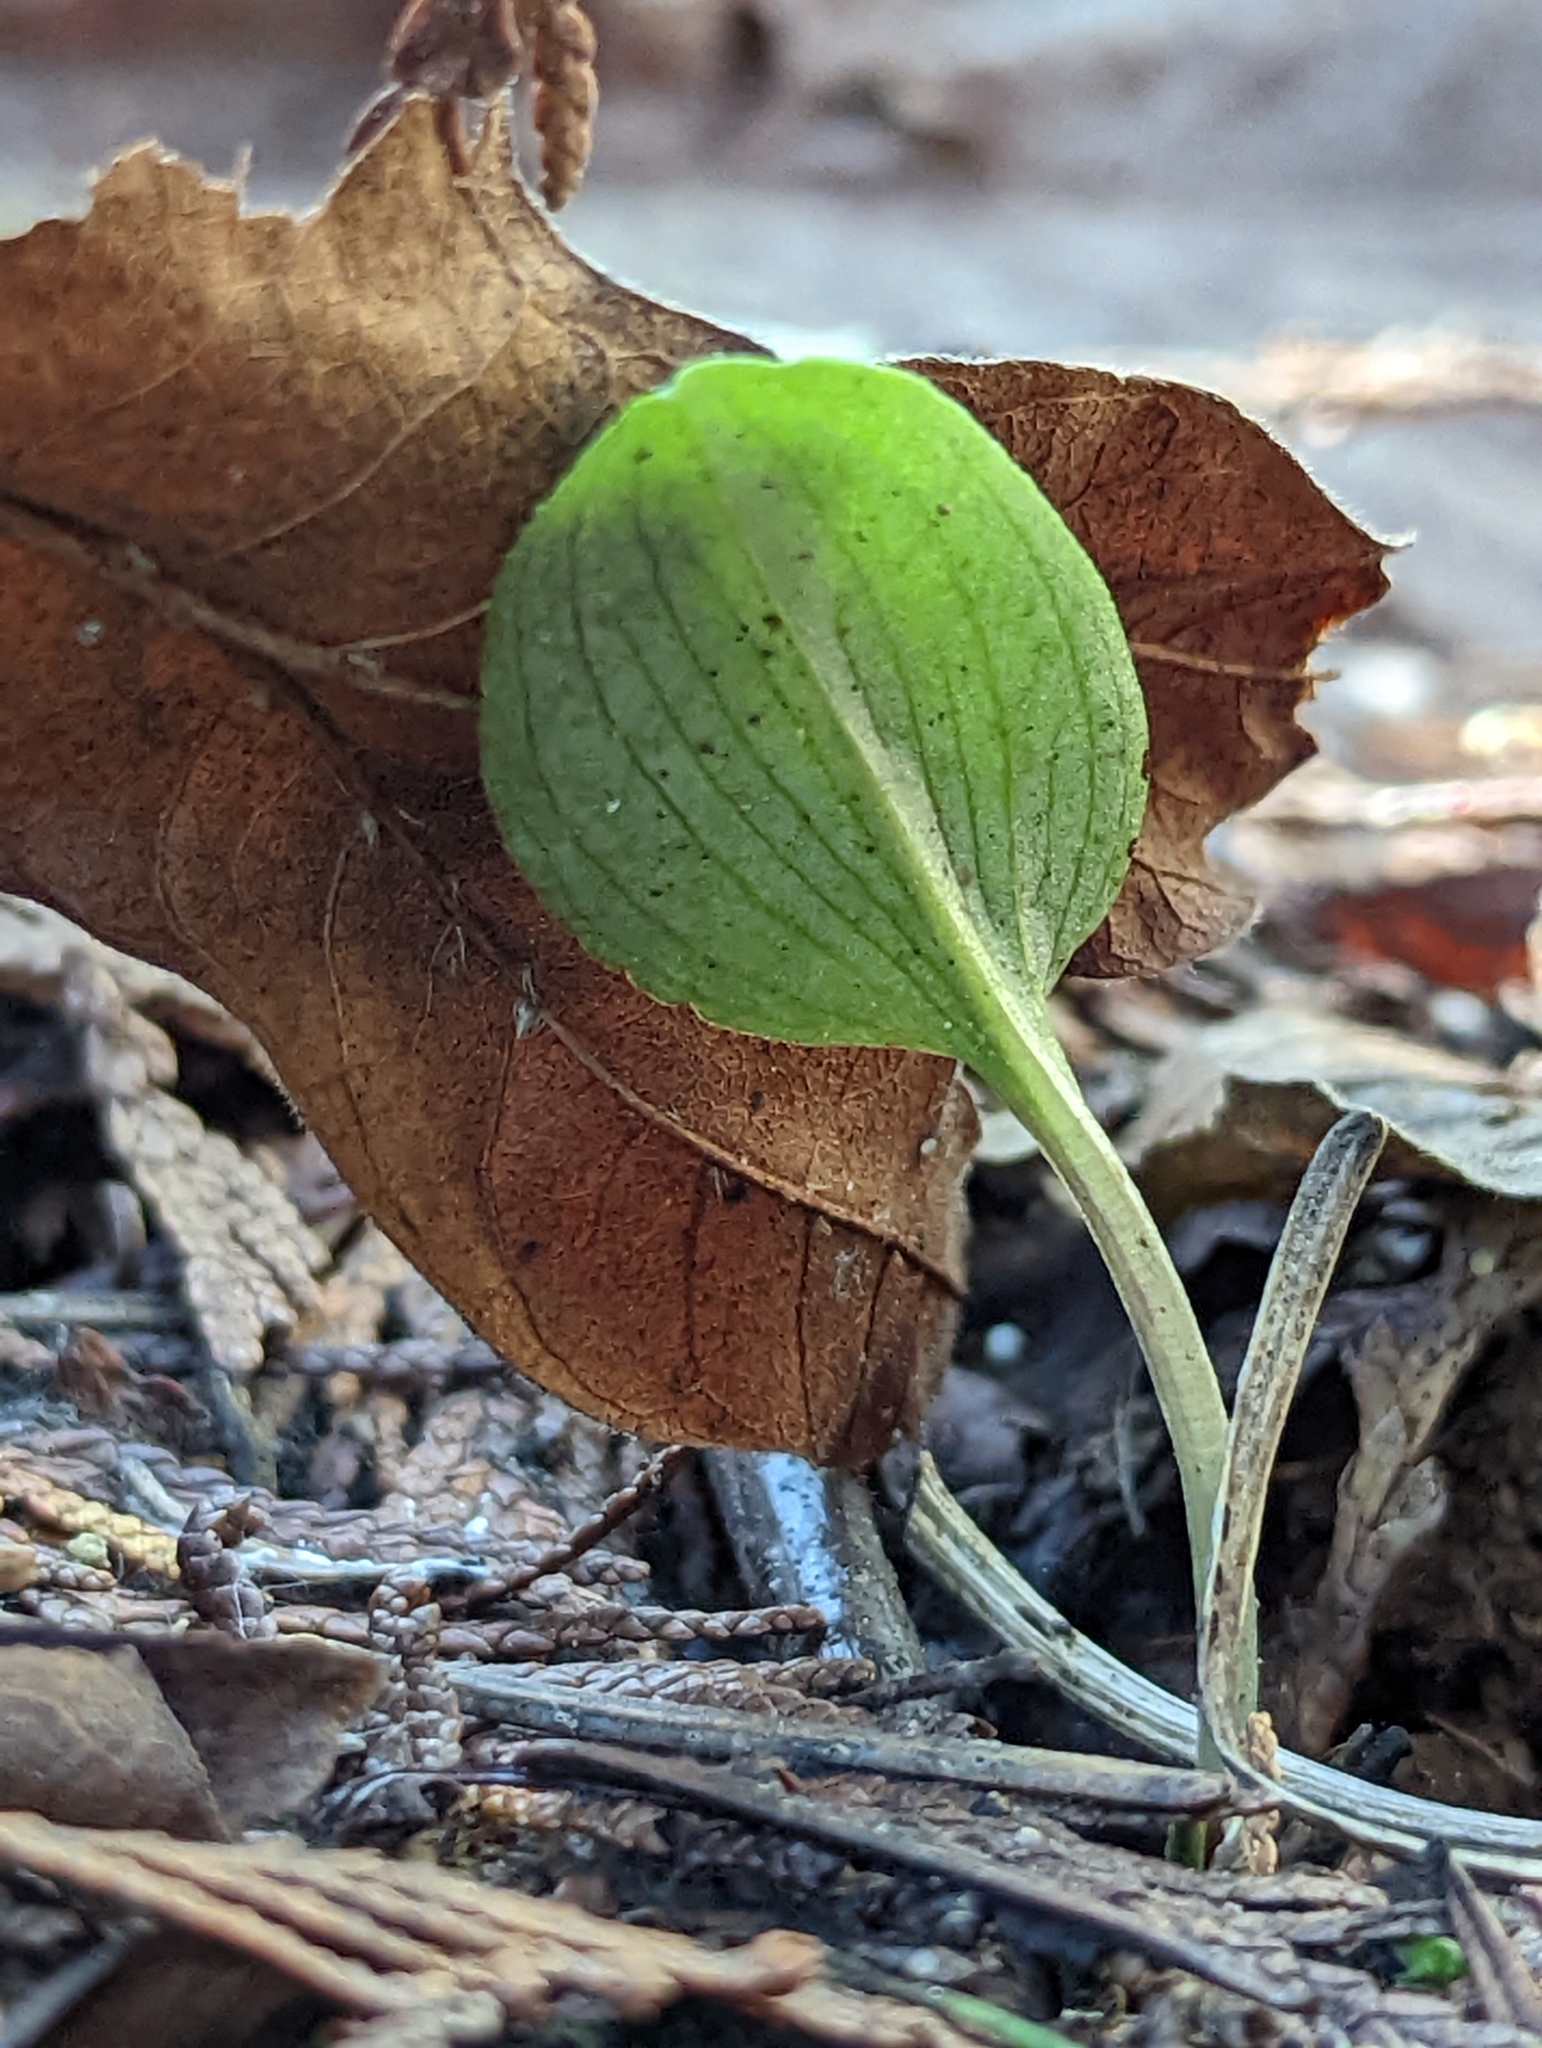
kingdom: Plantae
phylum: Tracheophyta
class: Liliopsida
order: Asparagales
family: Orchidaceae
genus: Calypso
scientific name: Calypso bulbosa
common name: Calypso
